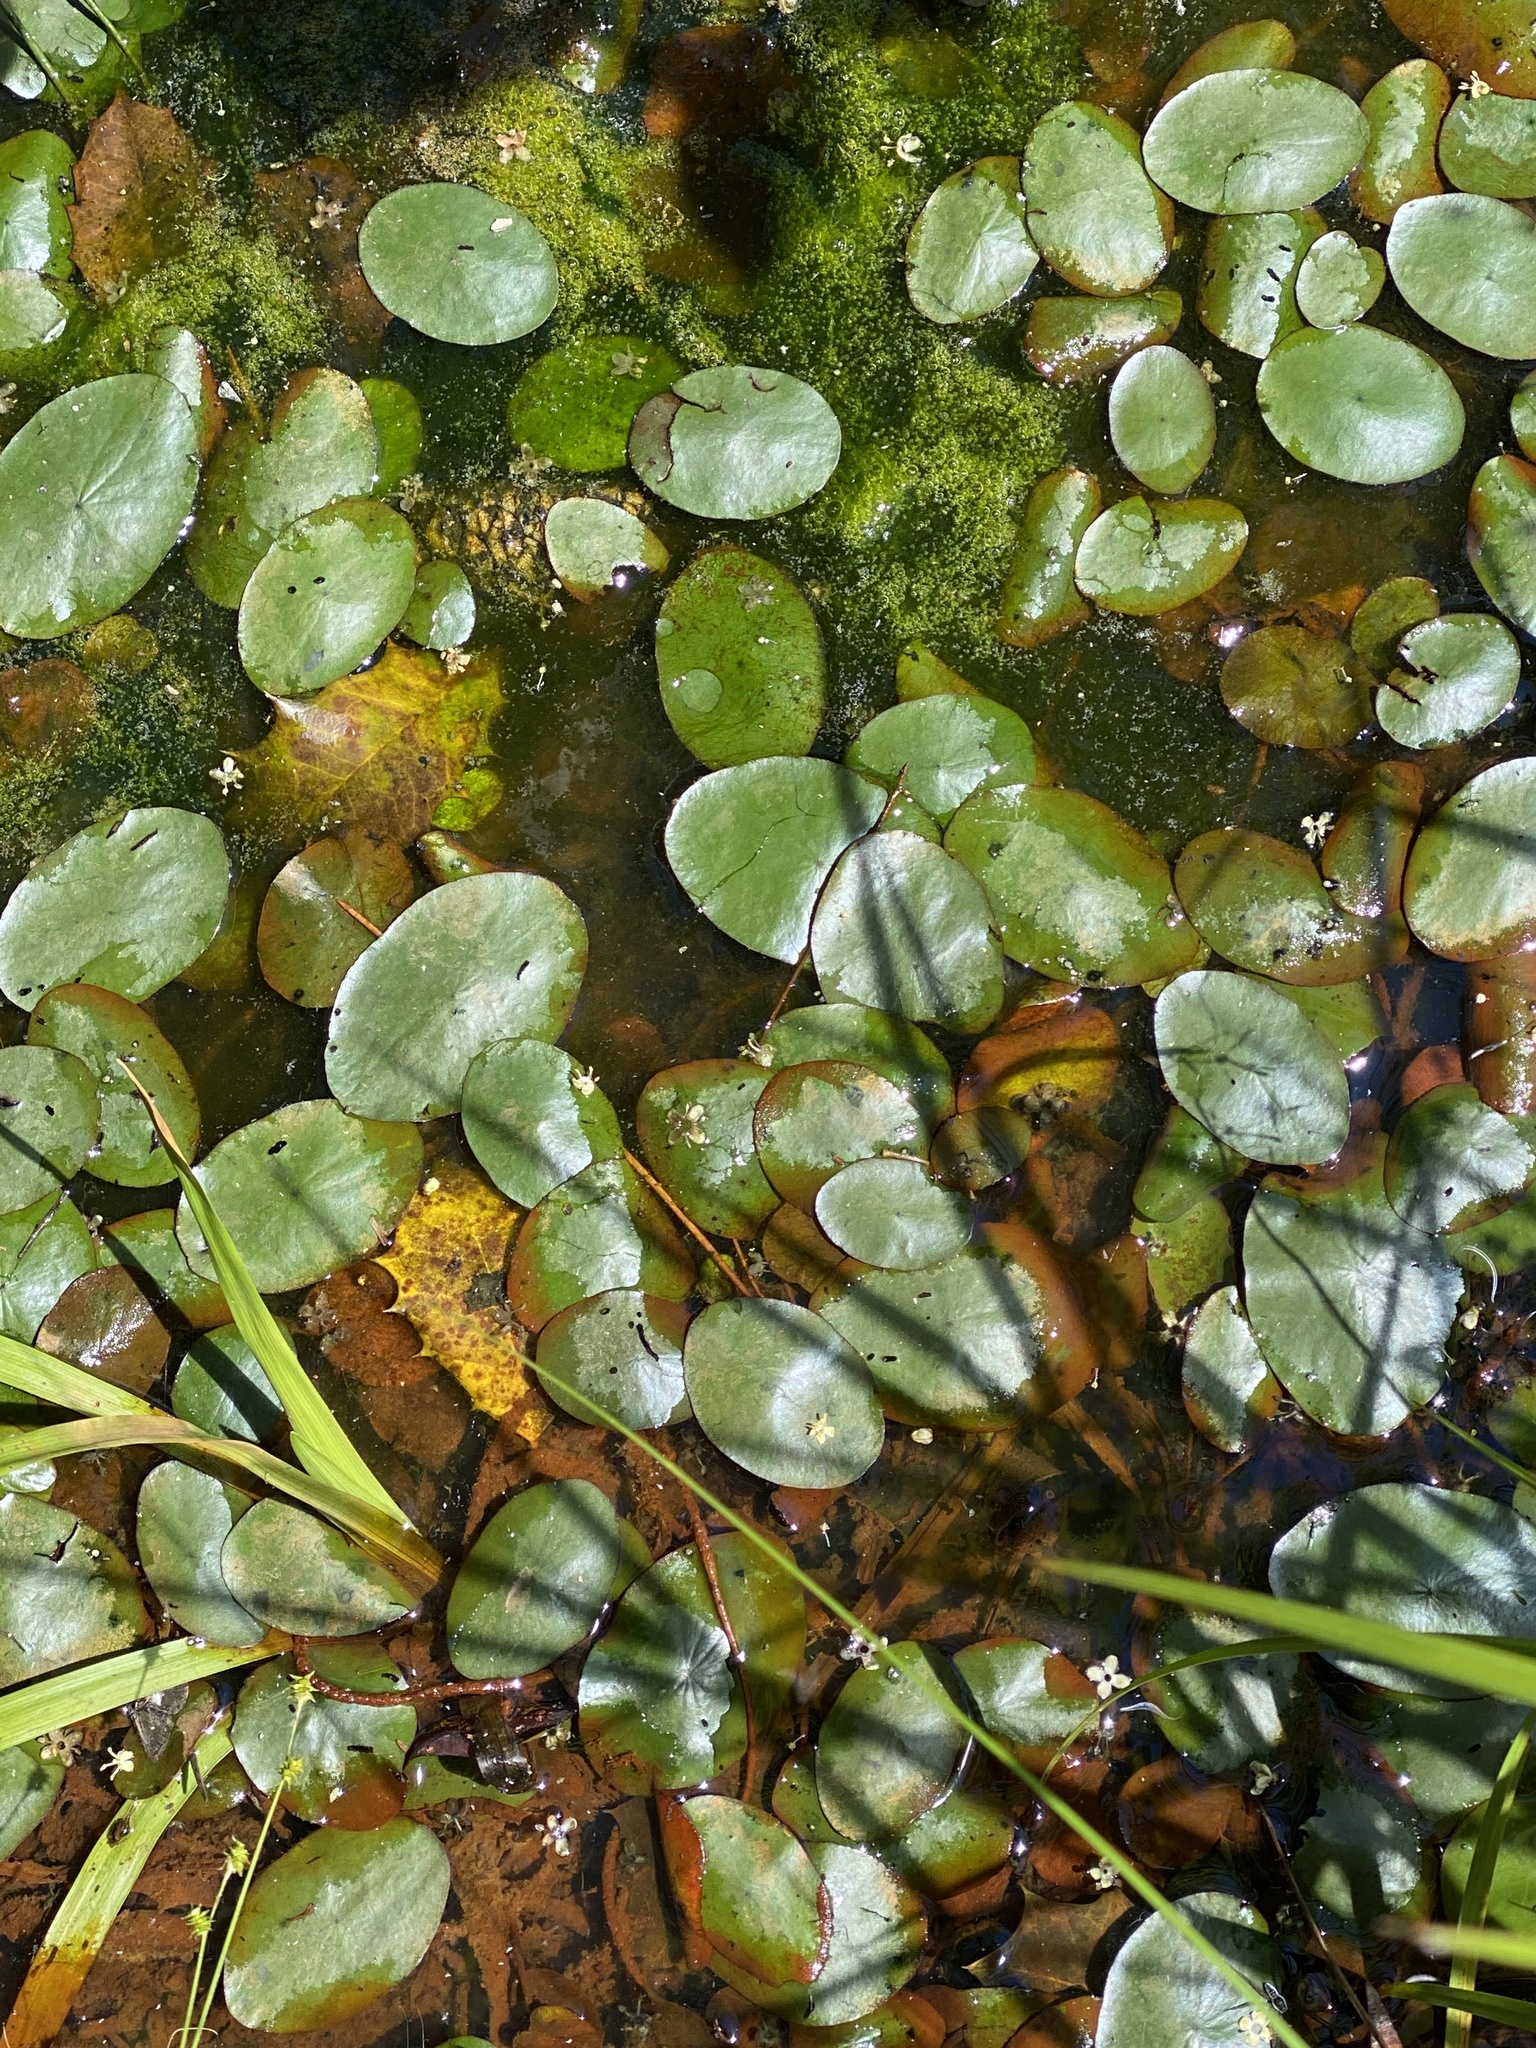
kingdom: Plantae
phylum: Tracheophyta
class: Magnoliopsida
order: Nymphaeales
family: Cabombaceae
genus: Brasenia
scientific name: Brasenia schreberi
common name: Water-shield
